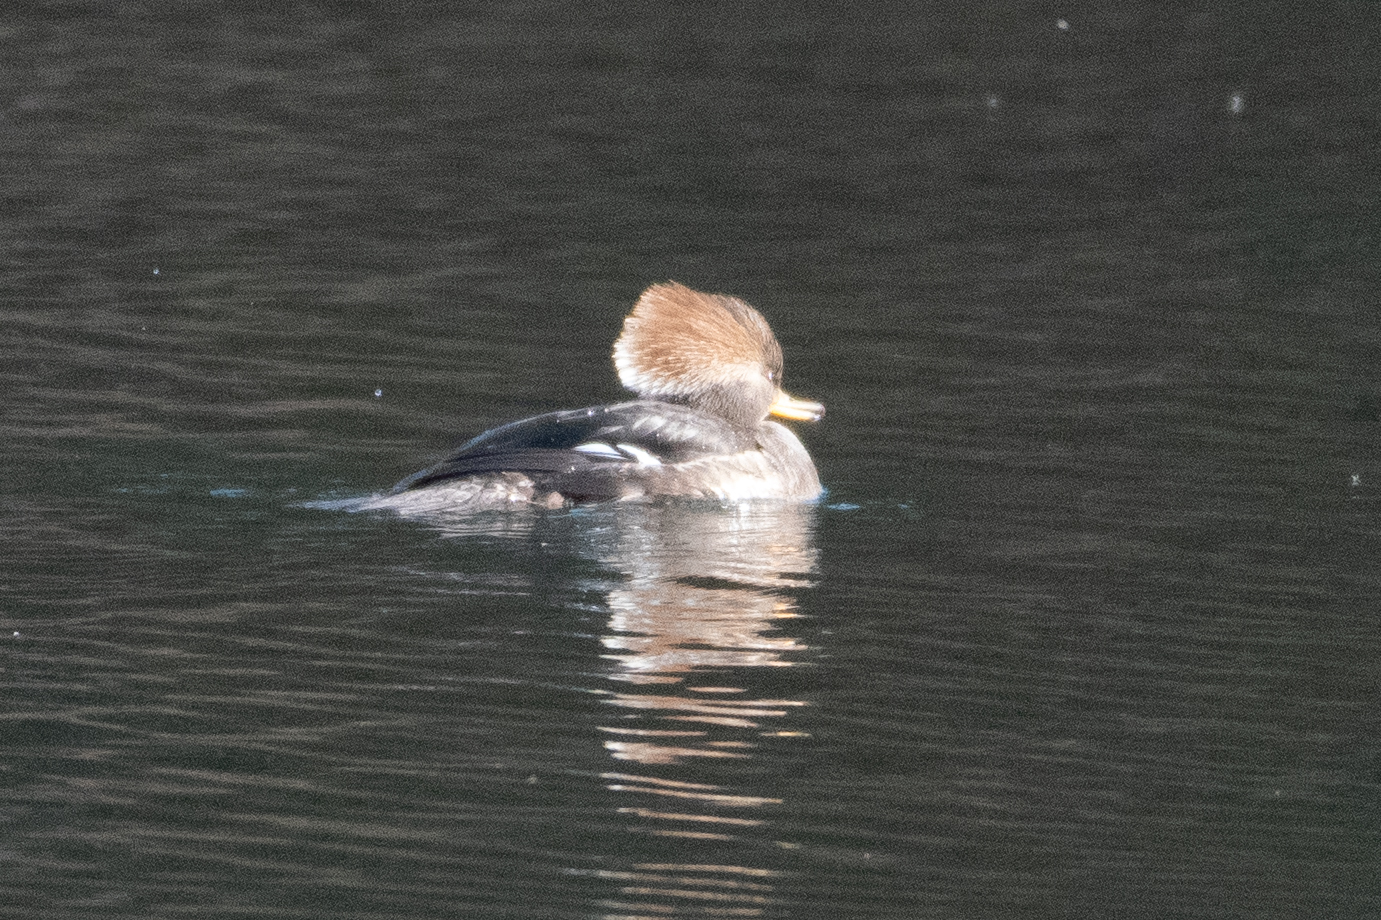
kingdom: Animalia
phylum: Chordata
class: Aves
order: Anseriformes
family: Anatidae
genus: Lophodytes
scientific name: Lophodytes cucullatus
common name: Hooded merganser
